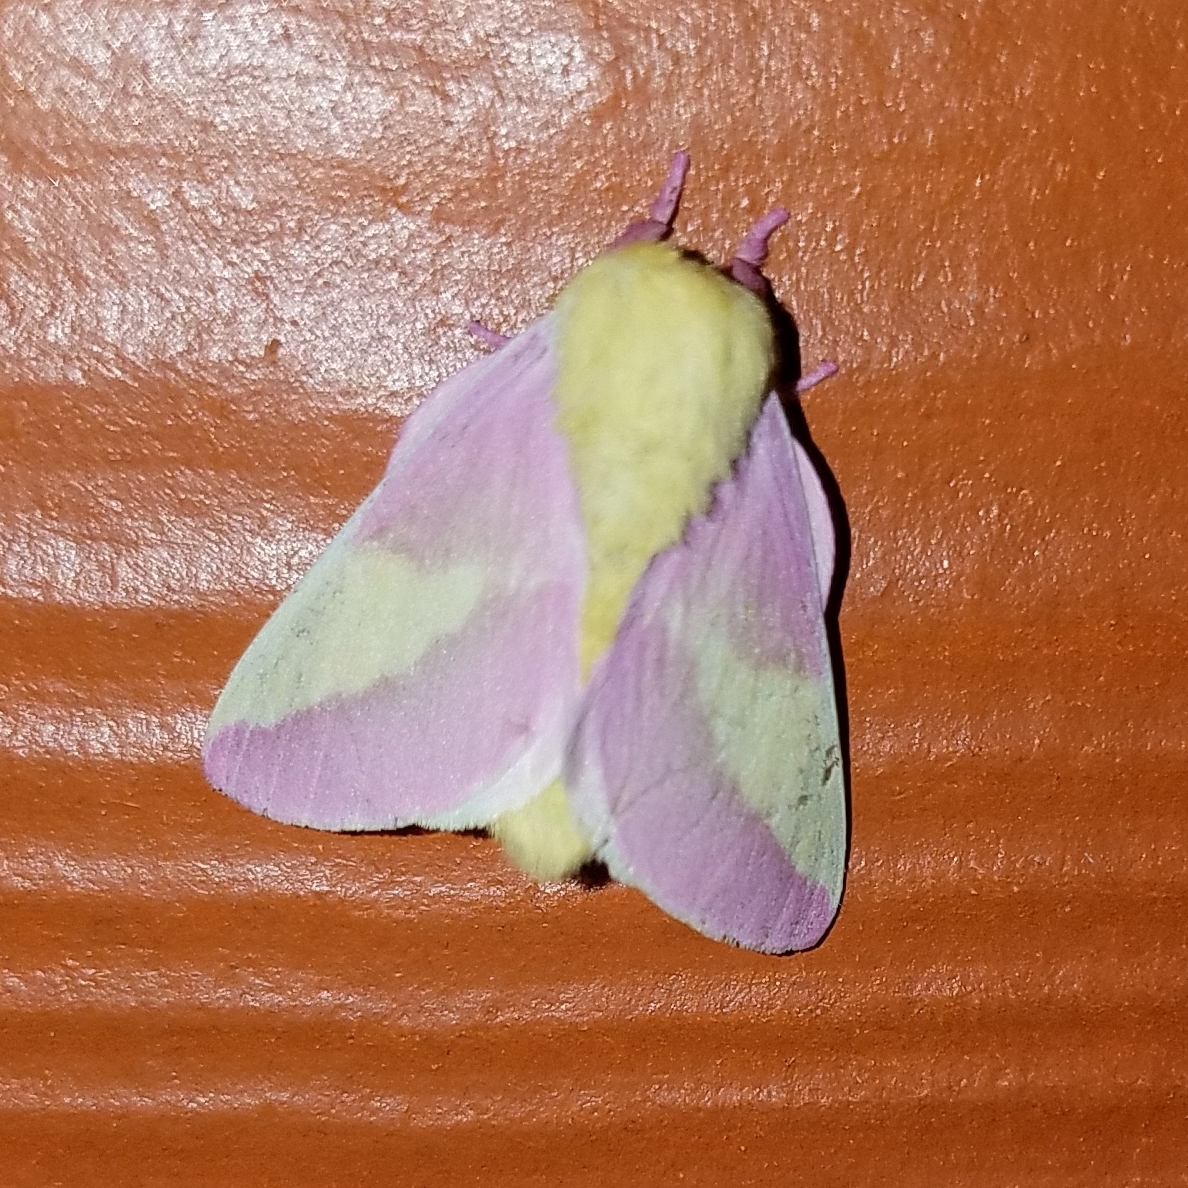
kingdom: Animalia
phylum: Arthropoda
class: Insecta
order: Lepidoptera
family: Saturniidae
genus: Dryocampa
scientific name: Dryocampa rubicunda
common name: Rosy maple moth
